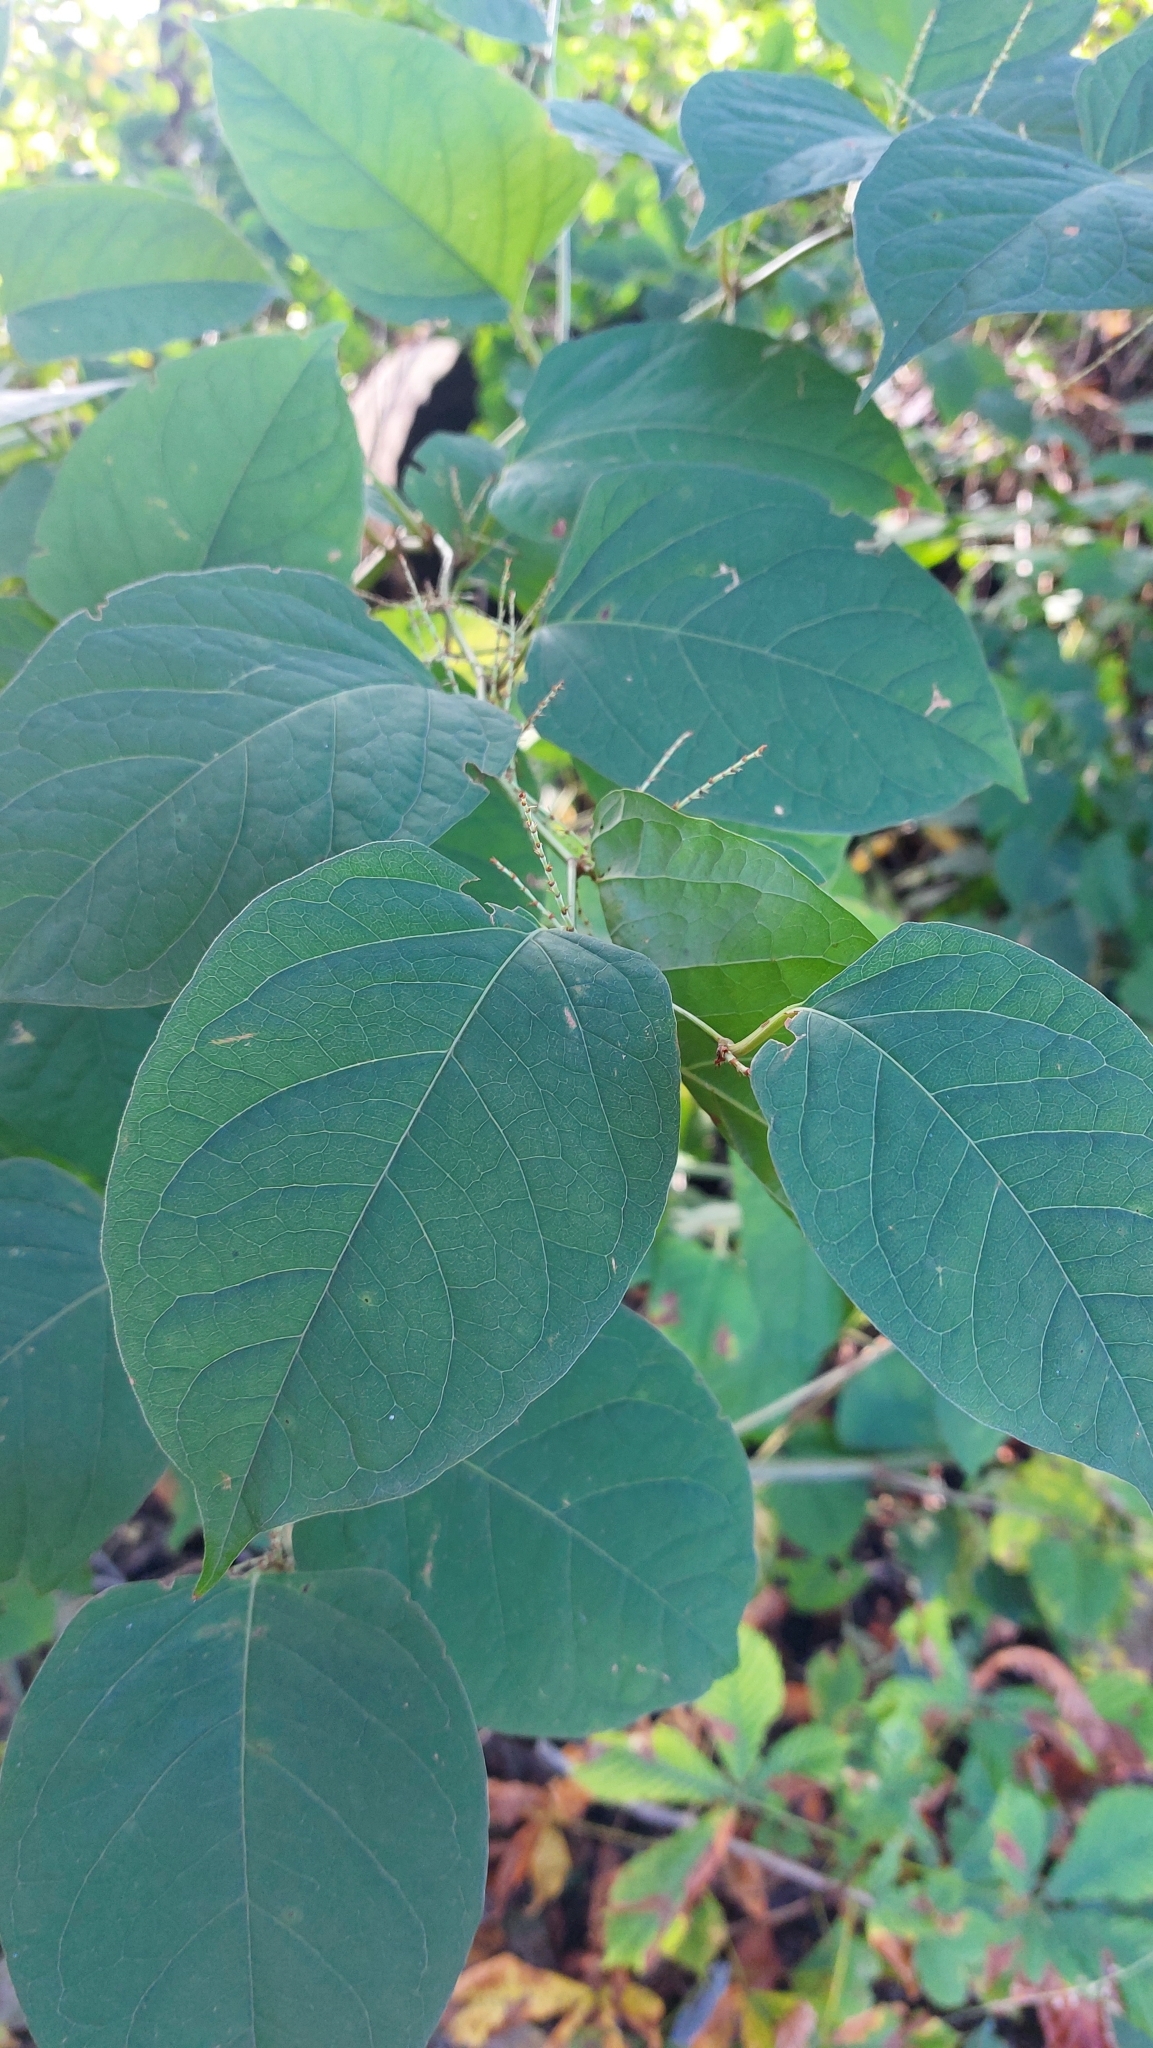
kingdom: Plantae
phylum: Tracheophyta
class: Magnoliopsida
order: Caryophyllales
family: Polygonaceae
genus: Reynoutria
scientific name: Reynoutria japonica
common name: Japanese knotweed
